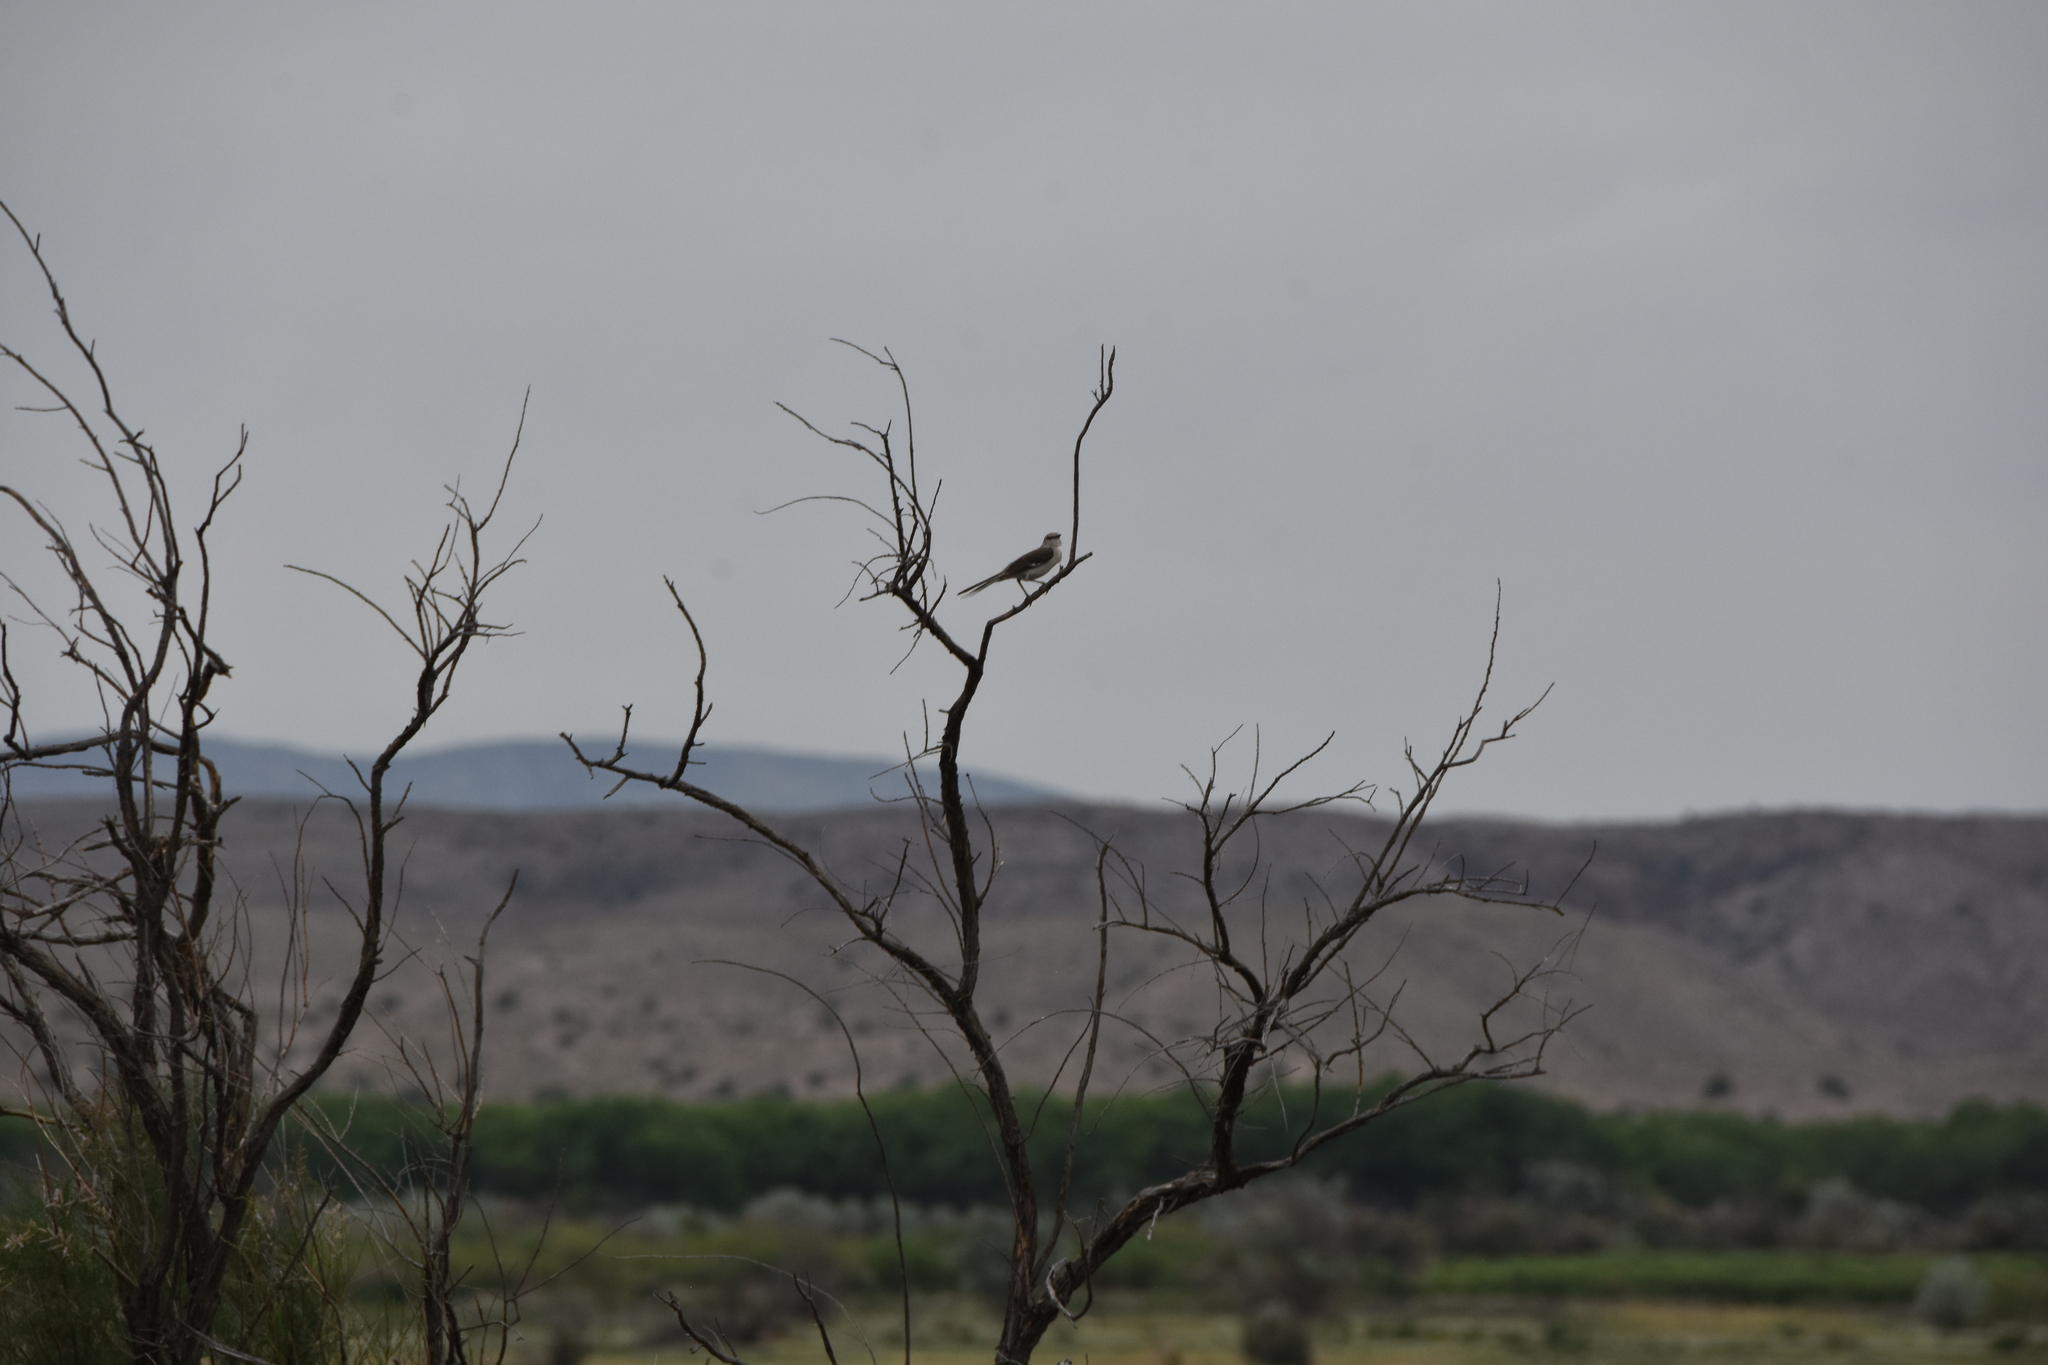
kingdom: Animalia
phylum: Chordata
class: Aves
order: Passeriformes
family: Mimidae
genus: Mimus
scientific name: Mimus polyglottos
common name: Northern mockingbird
